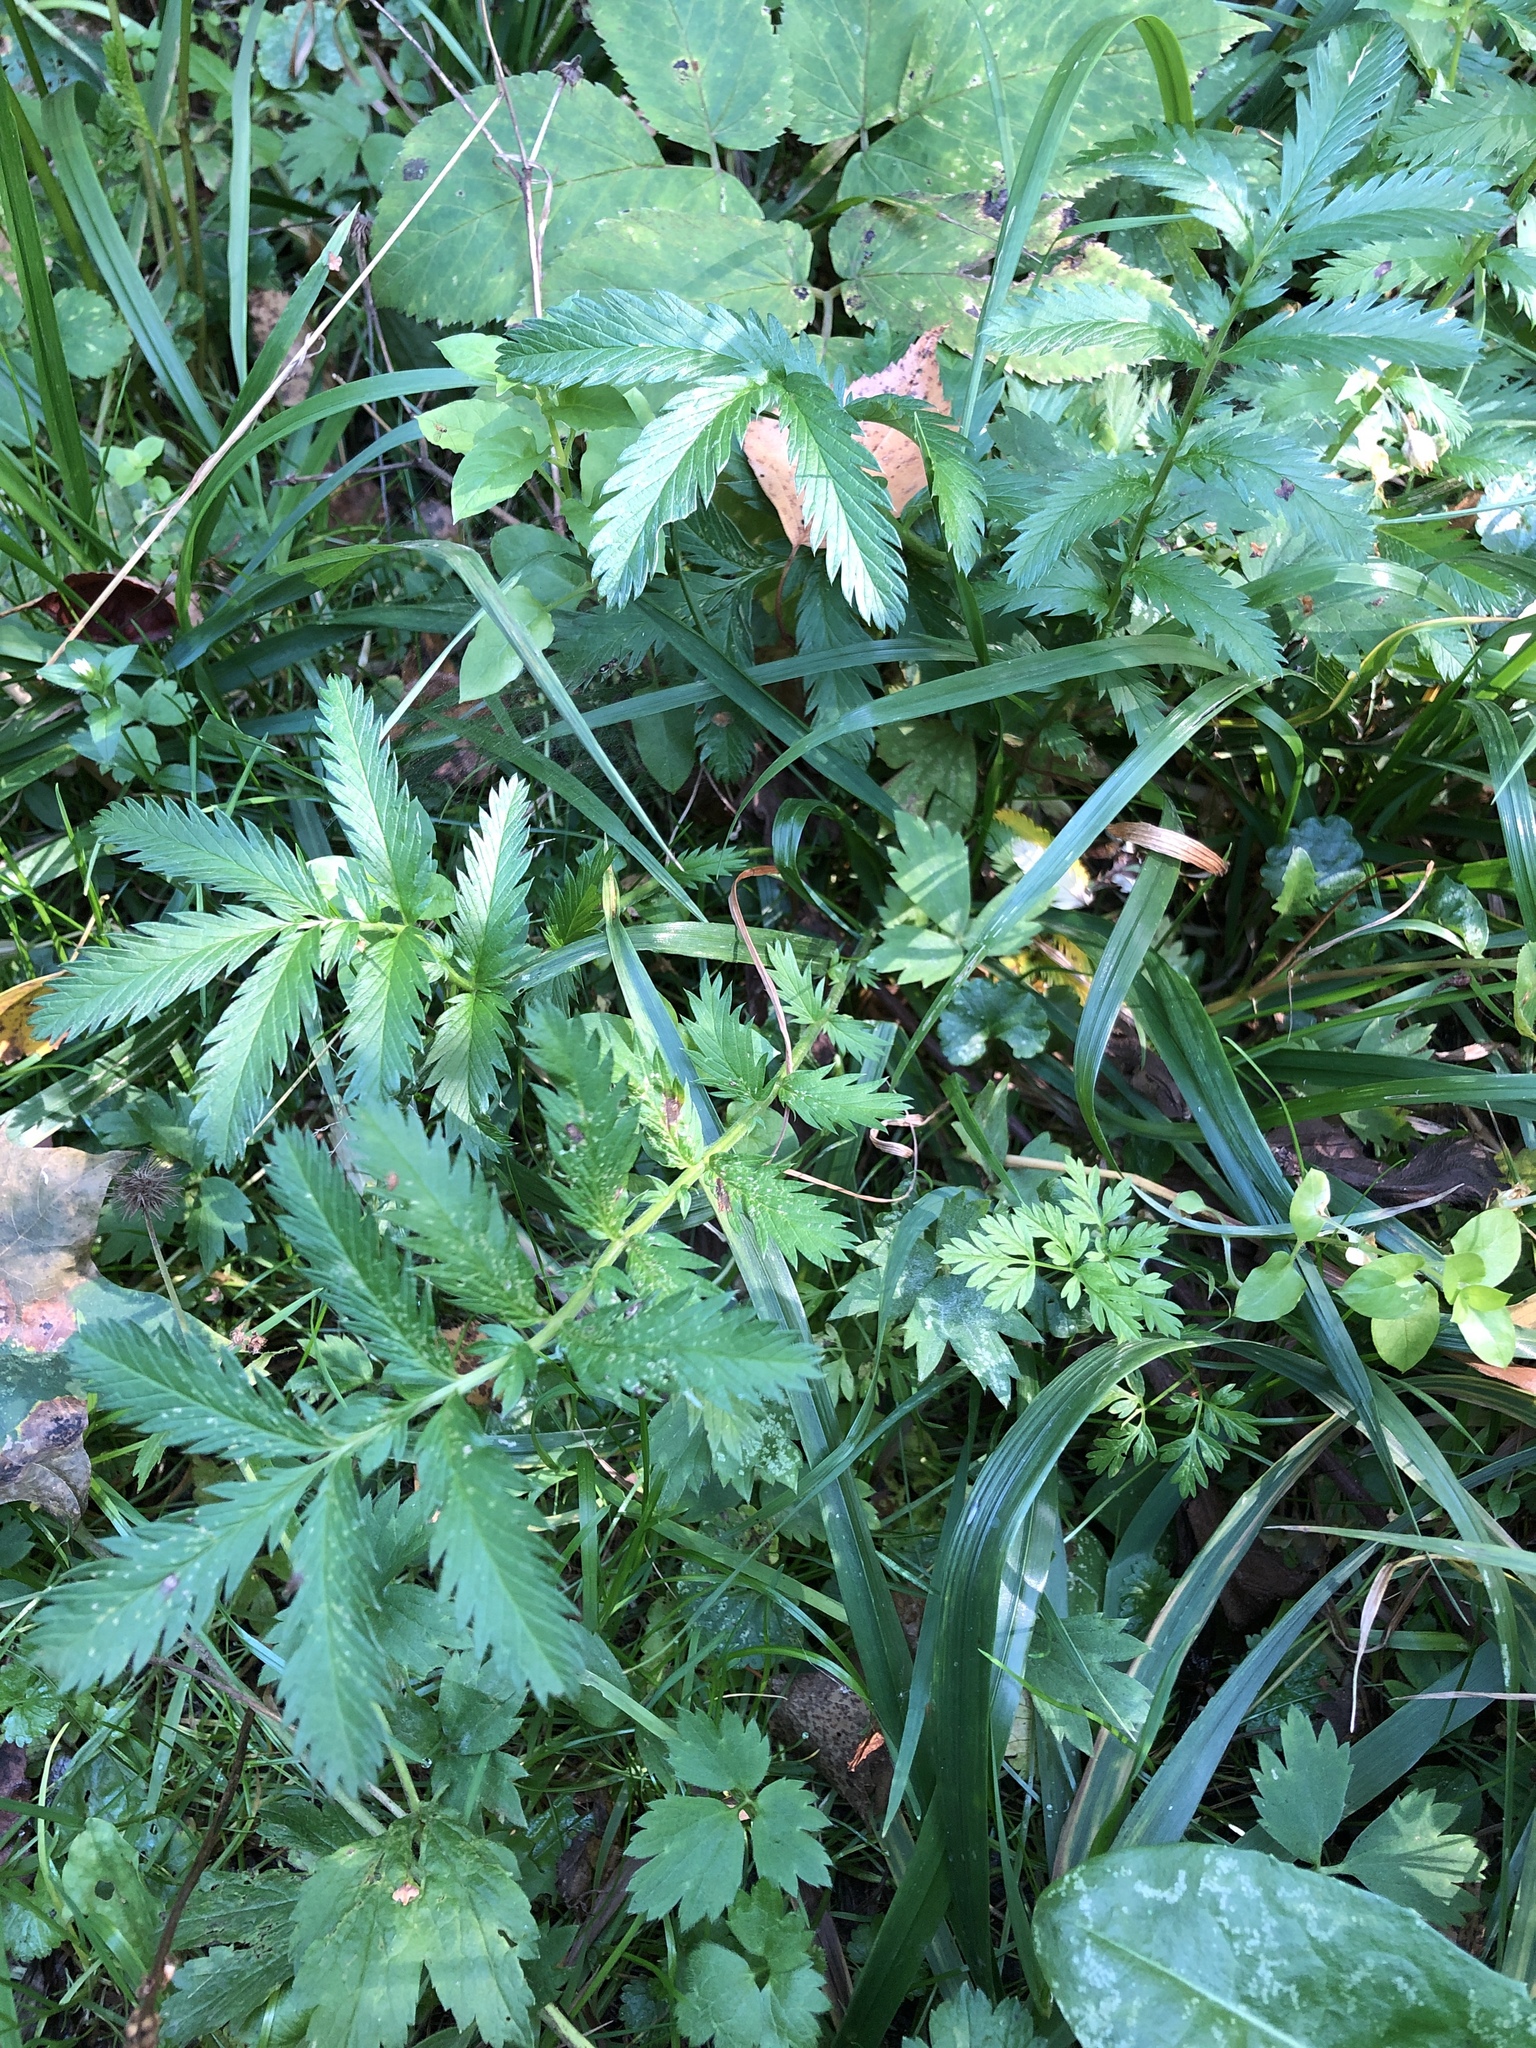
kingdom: Plantae
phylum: Tracheophyta
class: Magnoliopsida
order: Rosales
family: Rosaceae
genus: Argentina
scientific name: Argentina anserina
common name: Common silverweed
